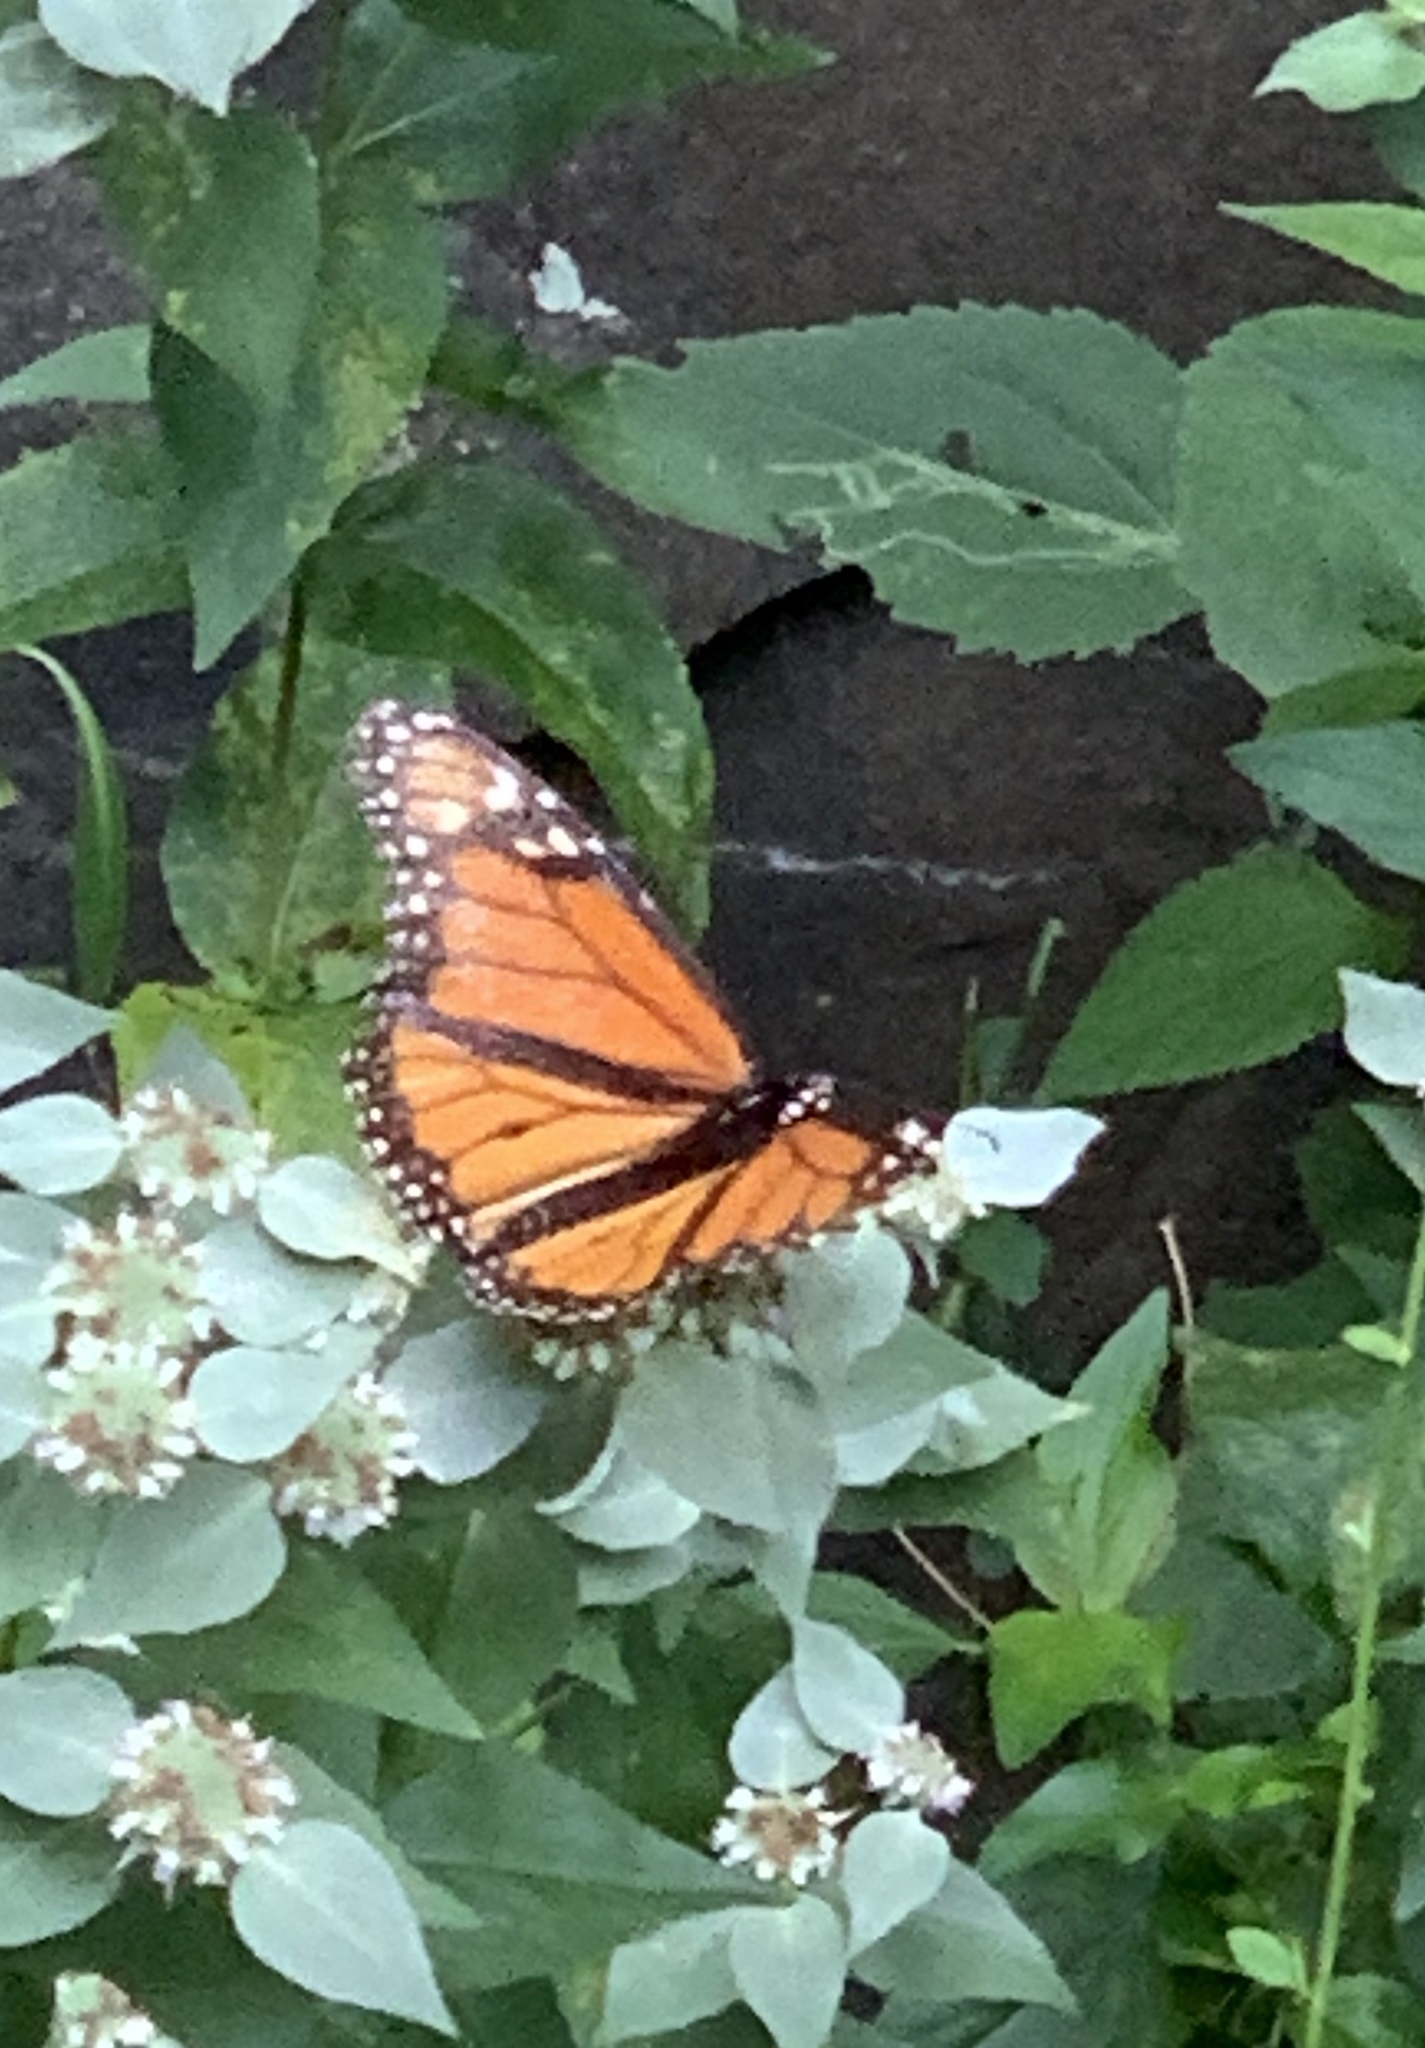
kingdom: Animalia
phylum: Arthropoda
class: Insecta
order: Lepidoptera
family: Nymphalidae
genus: Danaus
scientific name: Danaus plexippus
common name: Monarch
